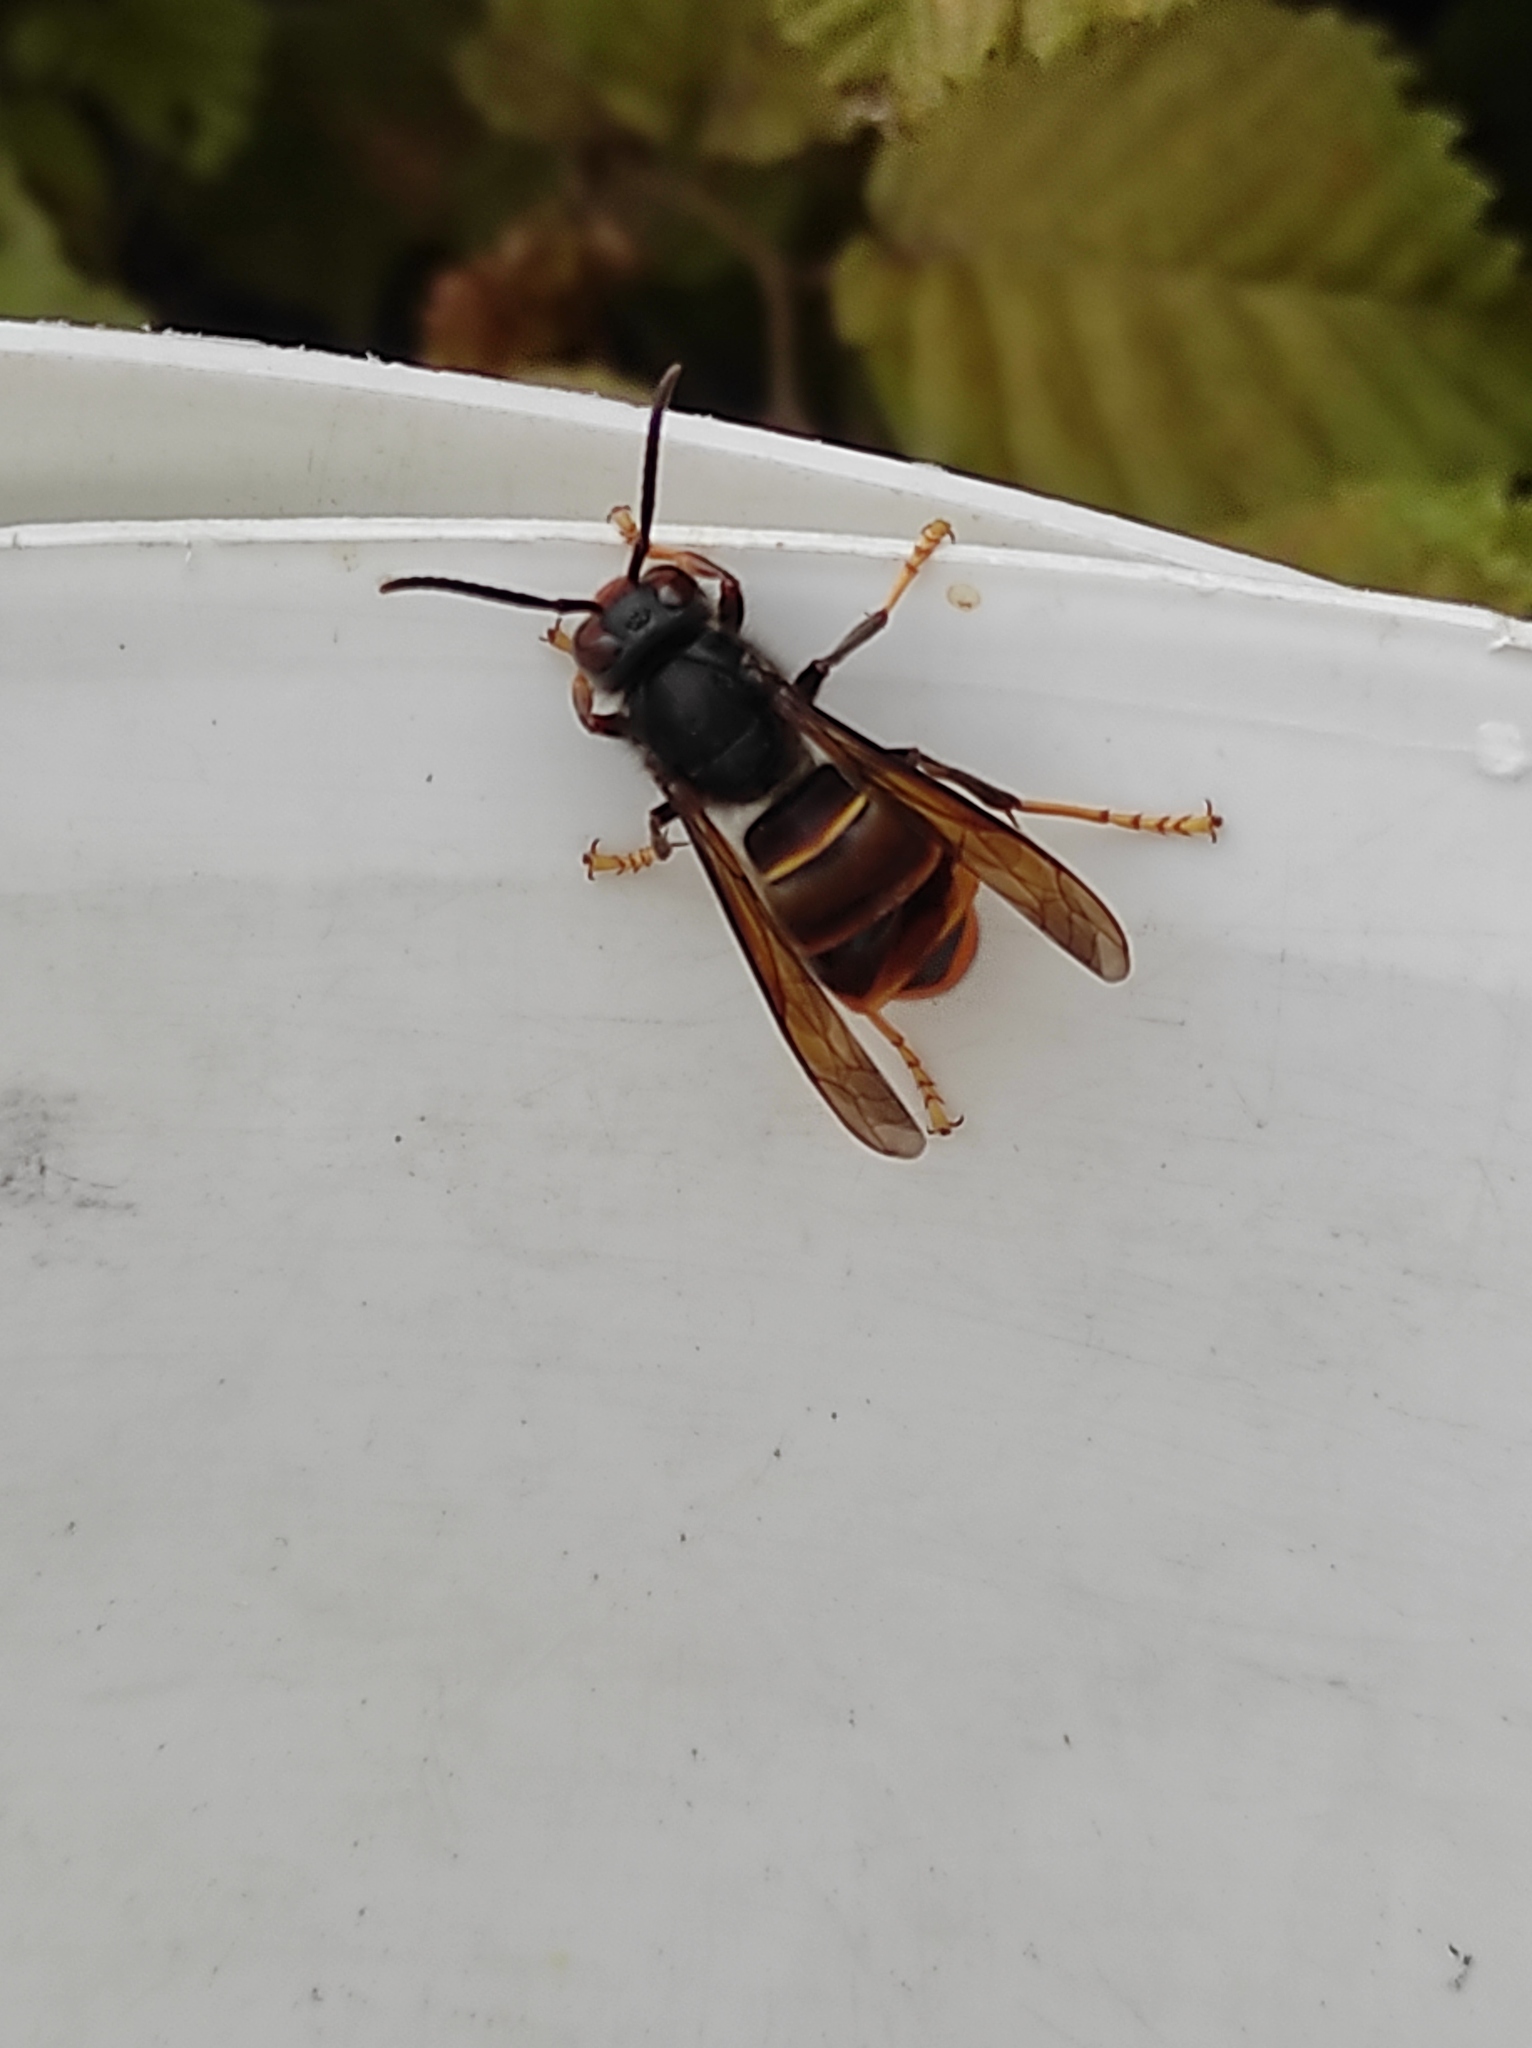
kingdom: Animalia
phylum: Arthropoda
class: Insecta
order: Hymenoptera
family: Vespidae
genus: Vespa
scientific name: Vespa velutina
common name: Asian hornet
